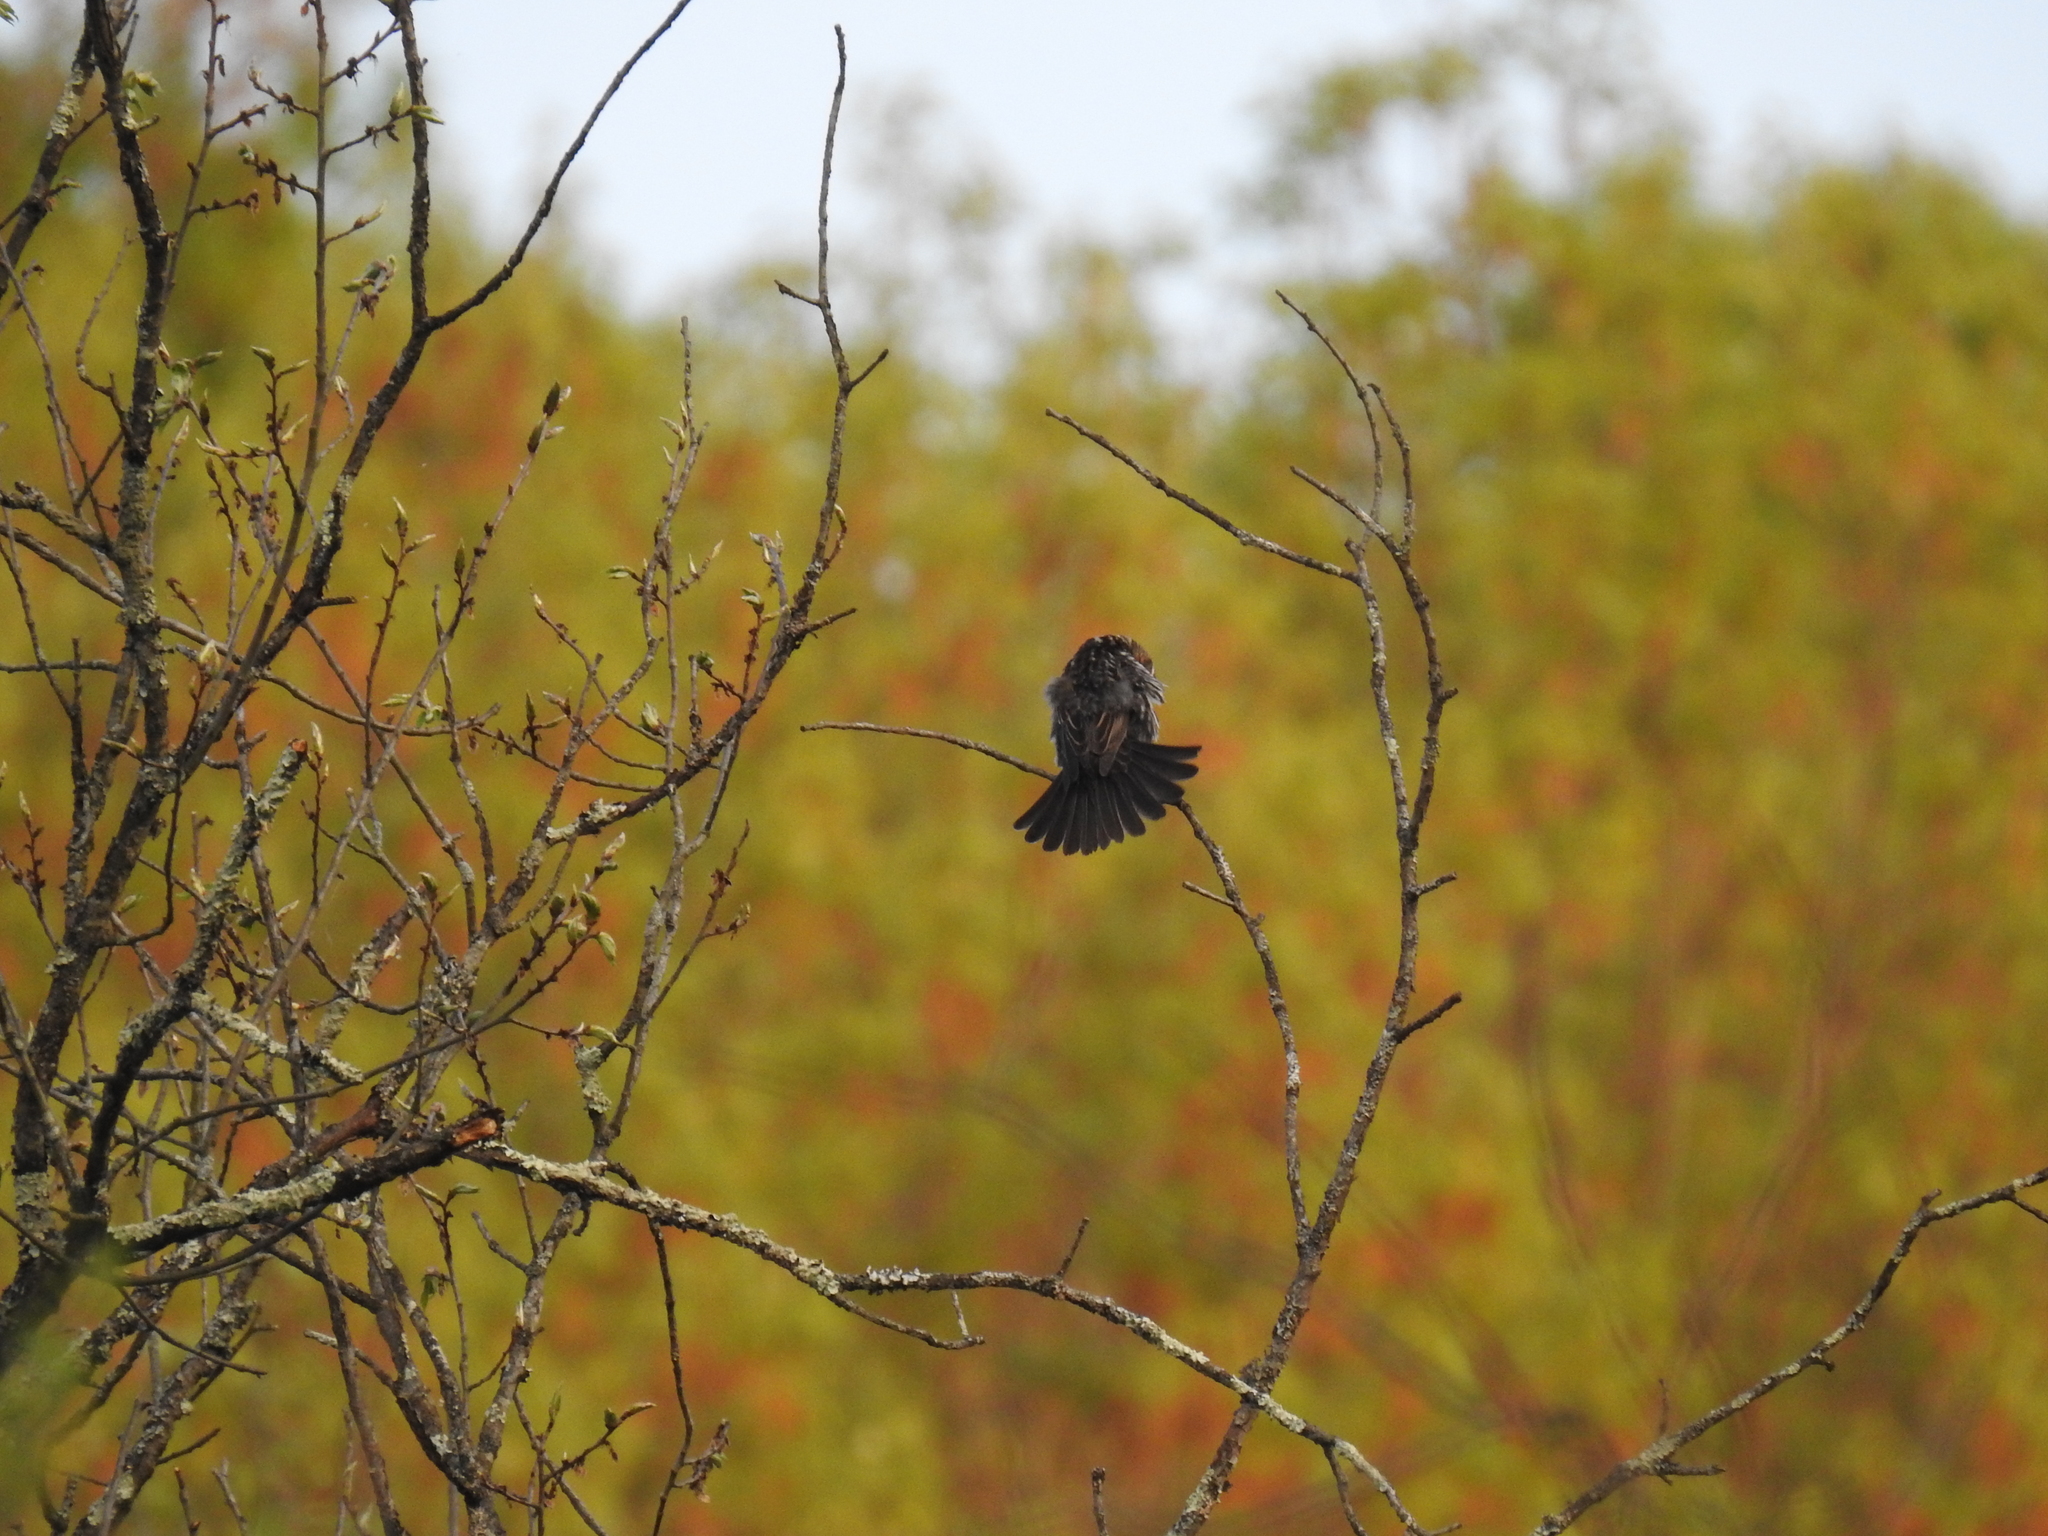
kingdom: Animalia
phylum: Chordata
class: Aves
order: Passeriformes
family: Icteridae
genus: Agelaius
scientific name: Agelaius phoeniceus
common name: Red-winged blackbird
